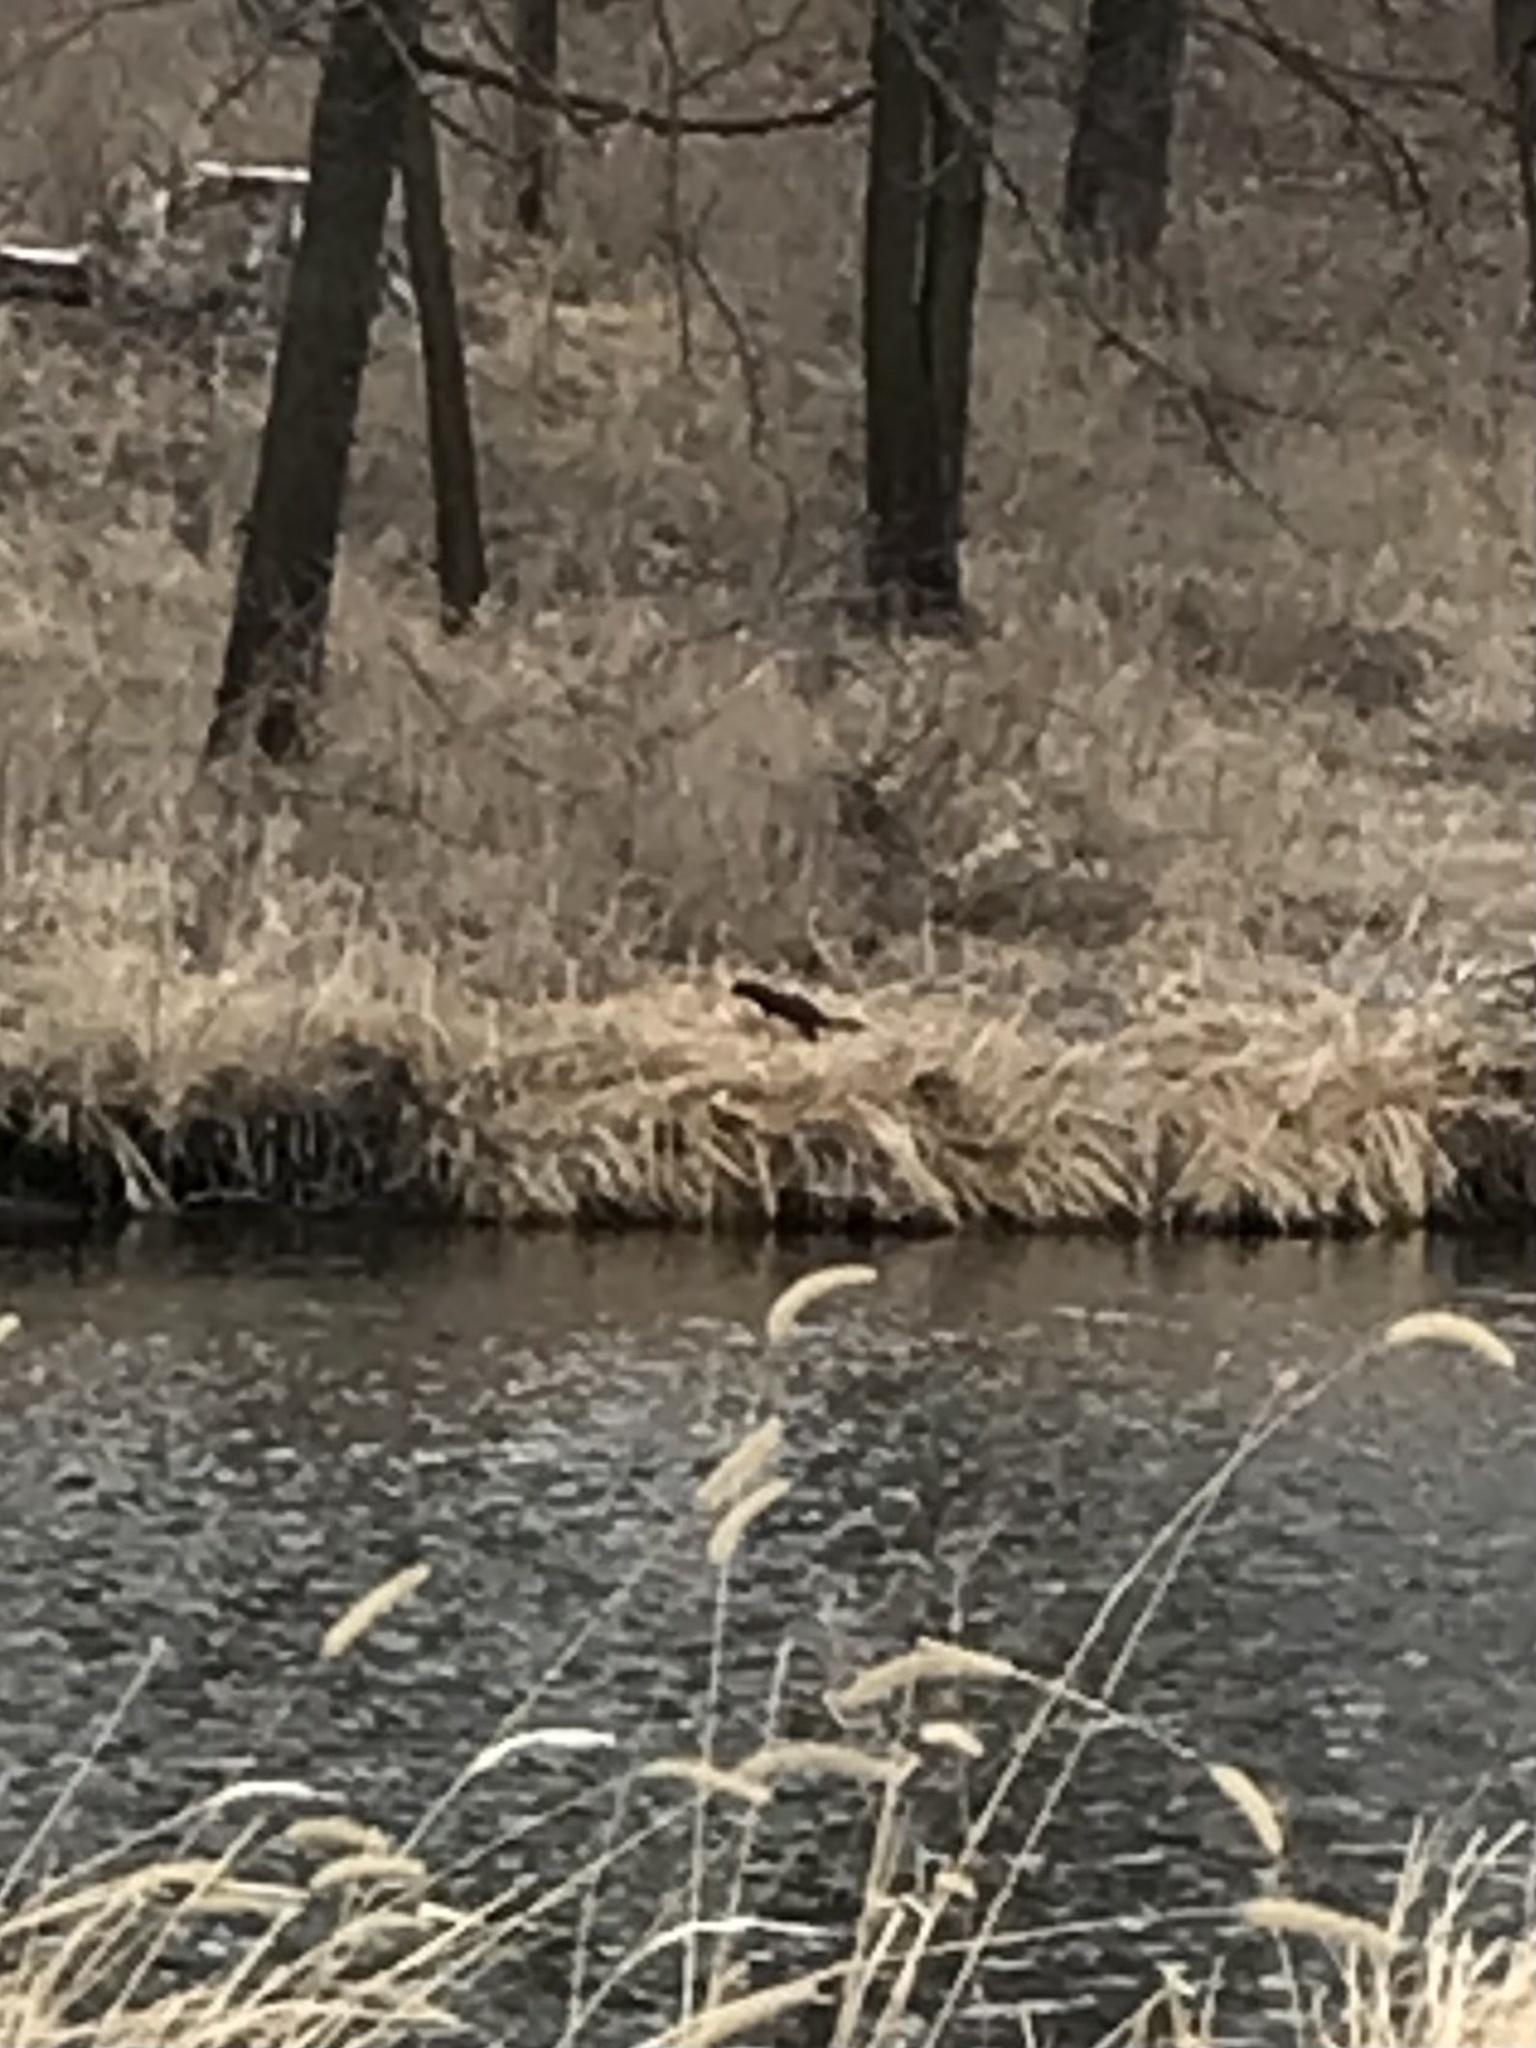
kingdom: Animalia
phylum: Chordata
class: Mammalia
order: Carnivora
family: Mustelidae
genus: Mustela
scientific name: Mustela
